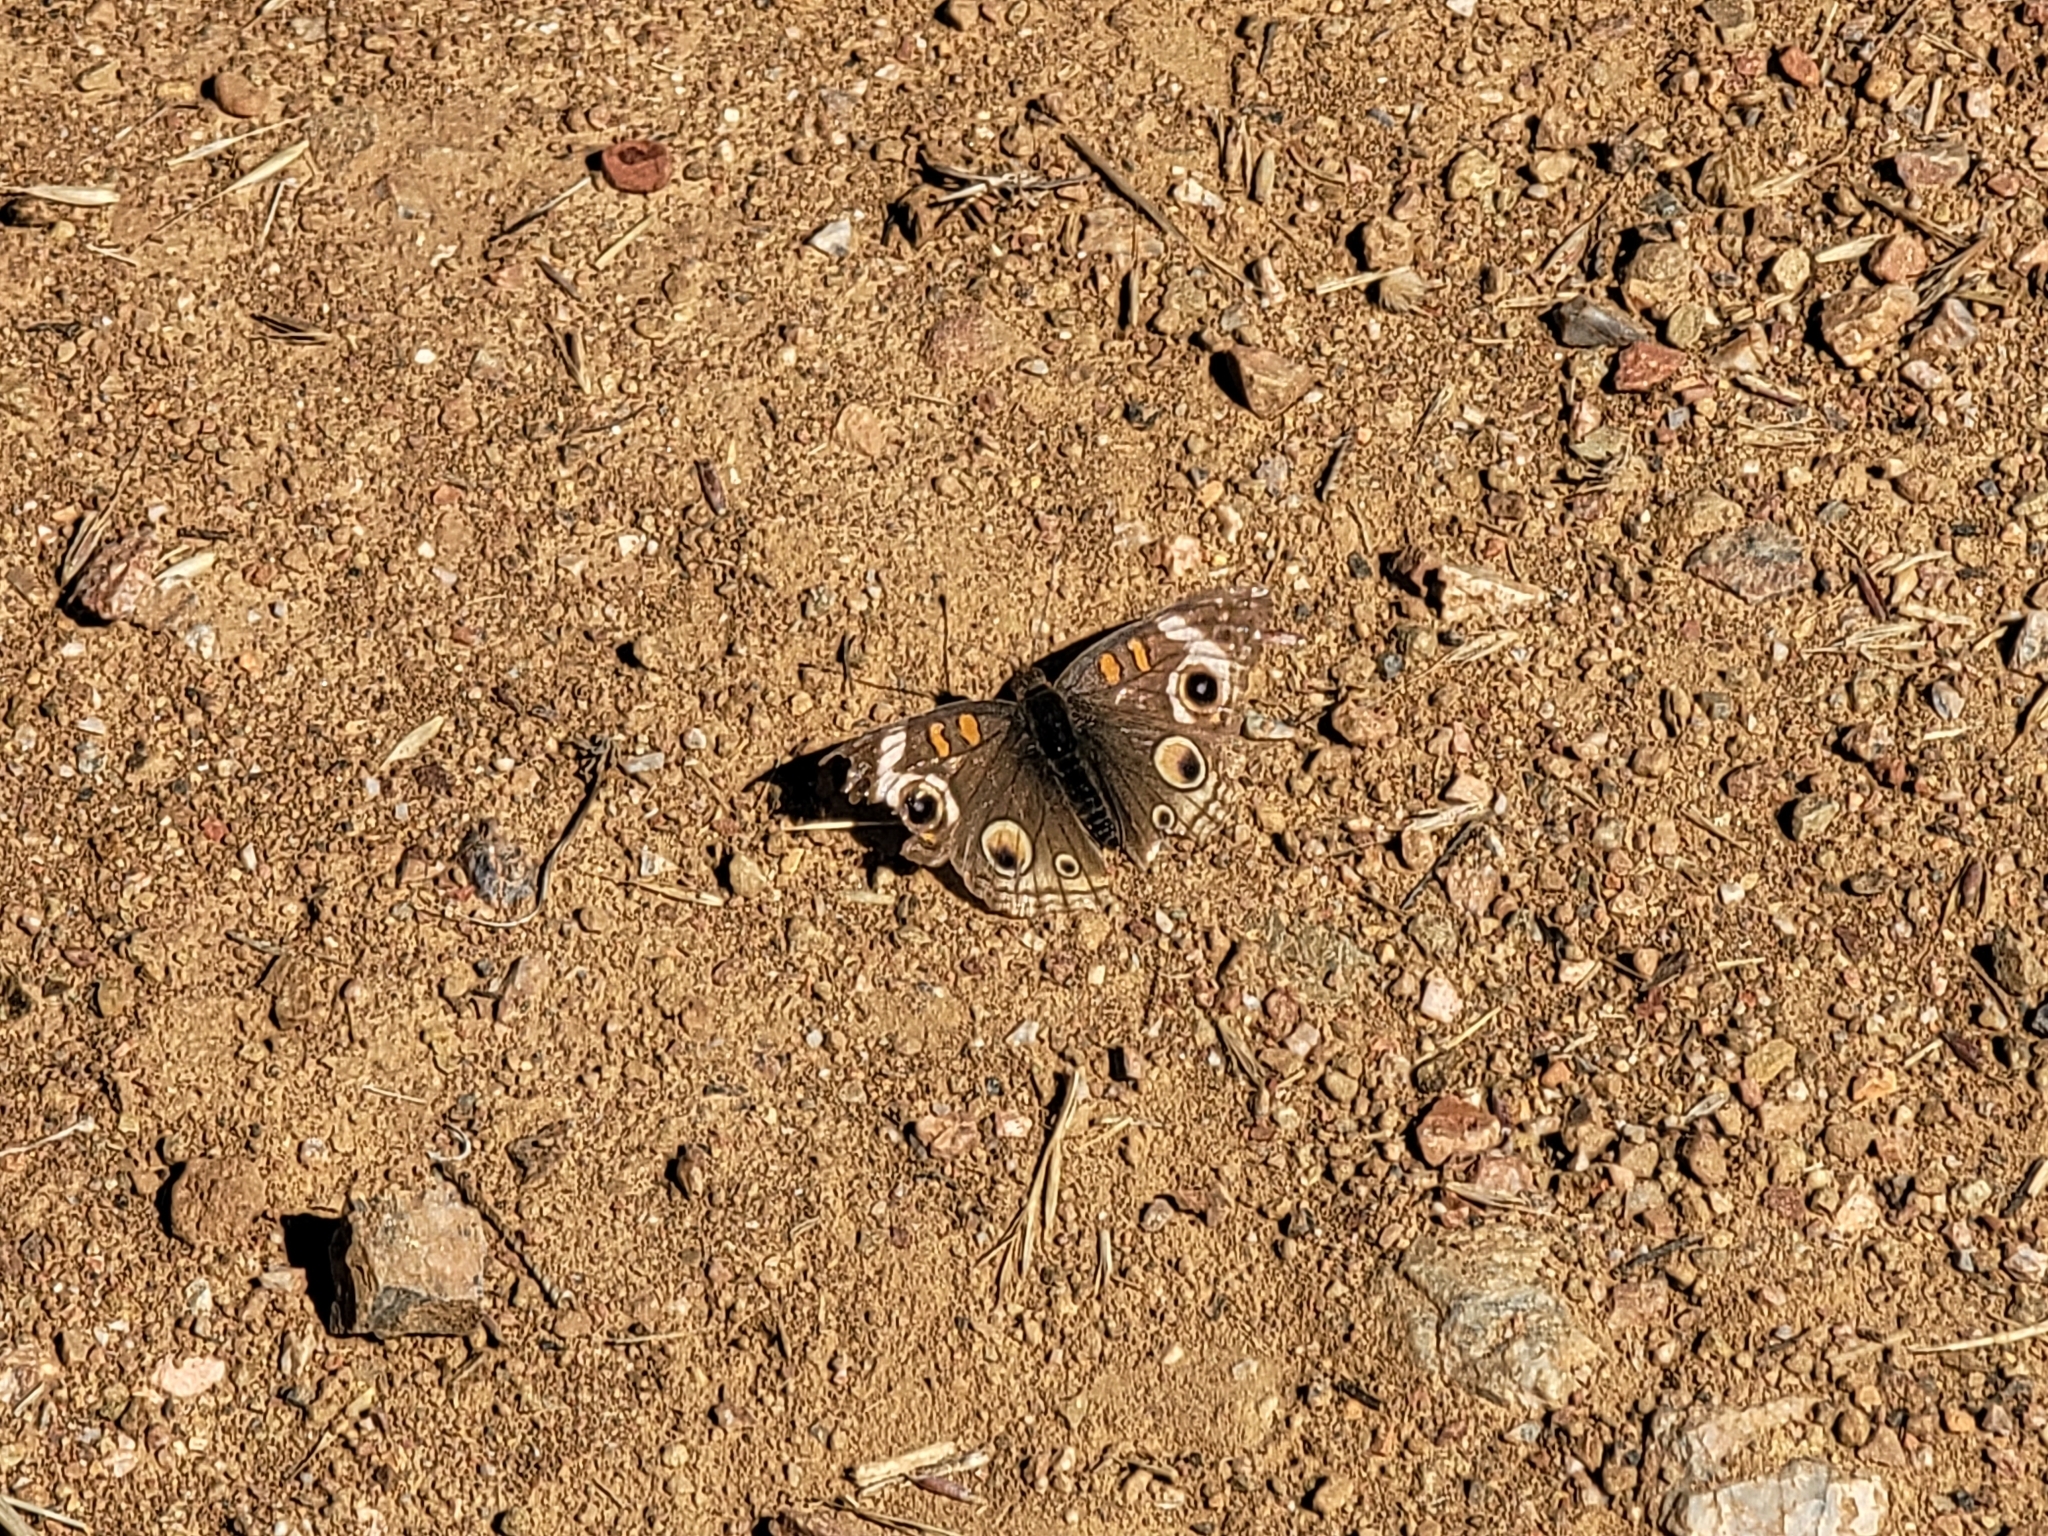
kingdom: Animalia
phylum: Arthropoda
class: Insecta
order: Lepidoptera
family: Nymphalidae
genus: Junonia
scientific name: Junonia grisea
